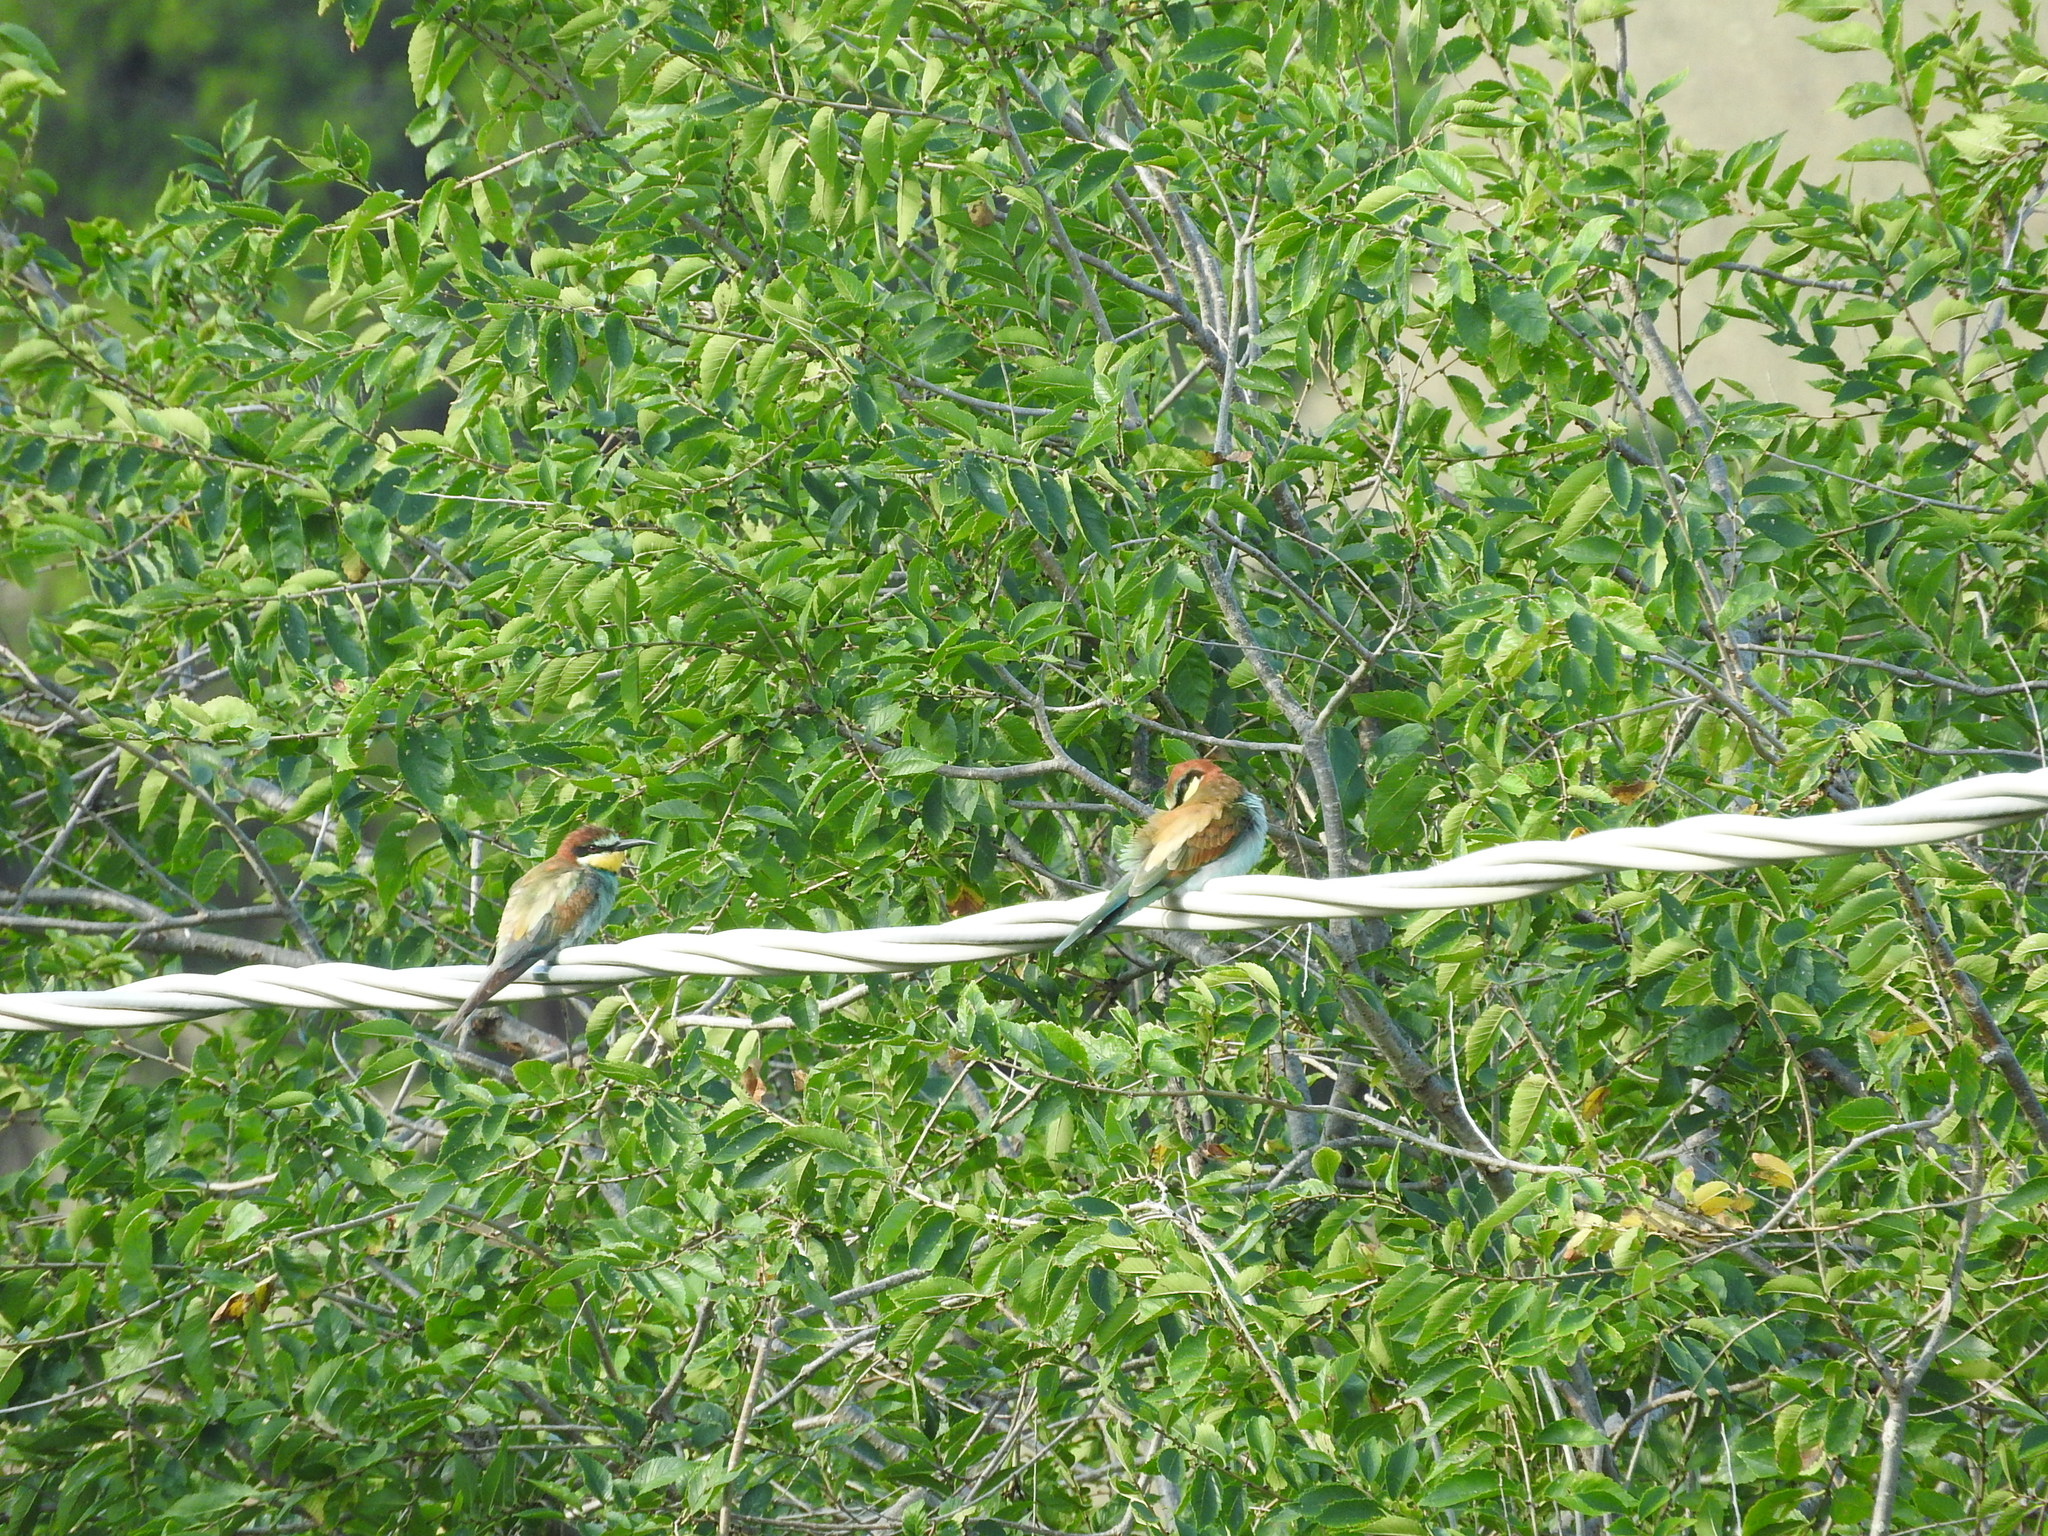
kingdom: Animalia
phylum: Chordata
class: Aves
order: Coraciiformes
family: Meropidae
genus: Merops
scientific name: Merops apiaster
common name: European bee-eater
